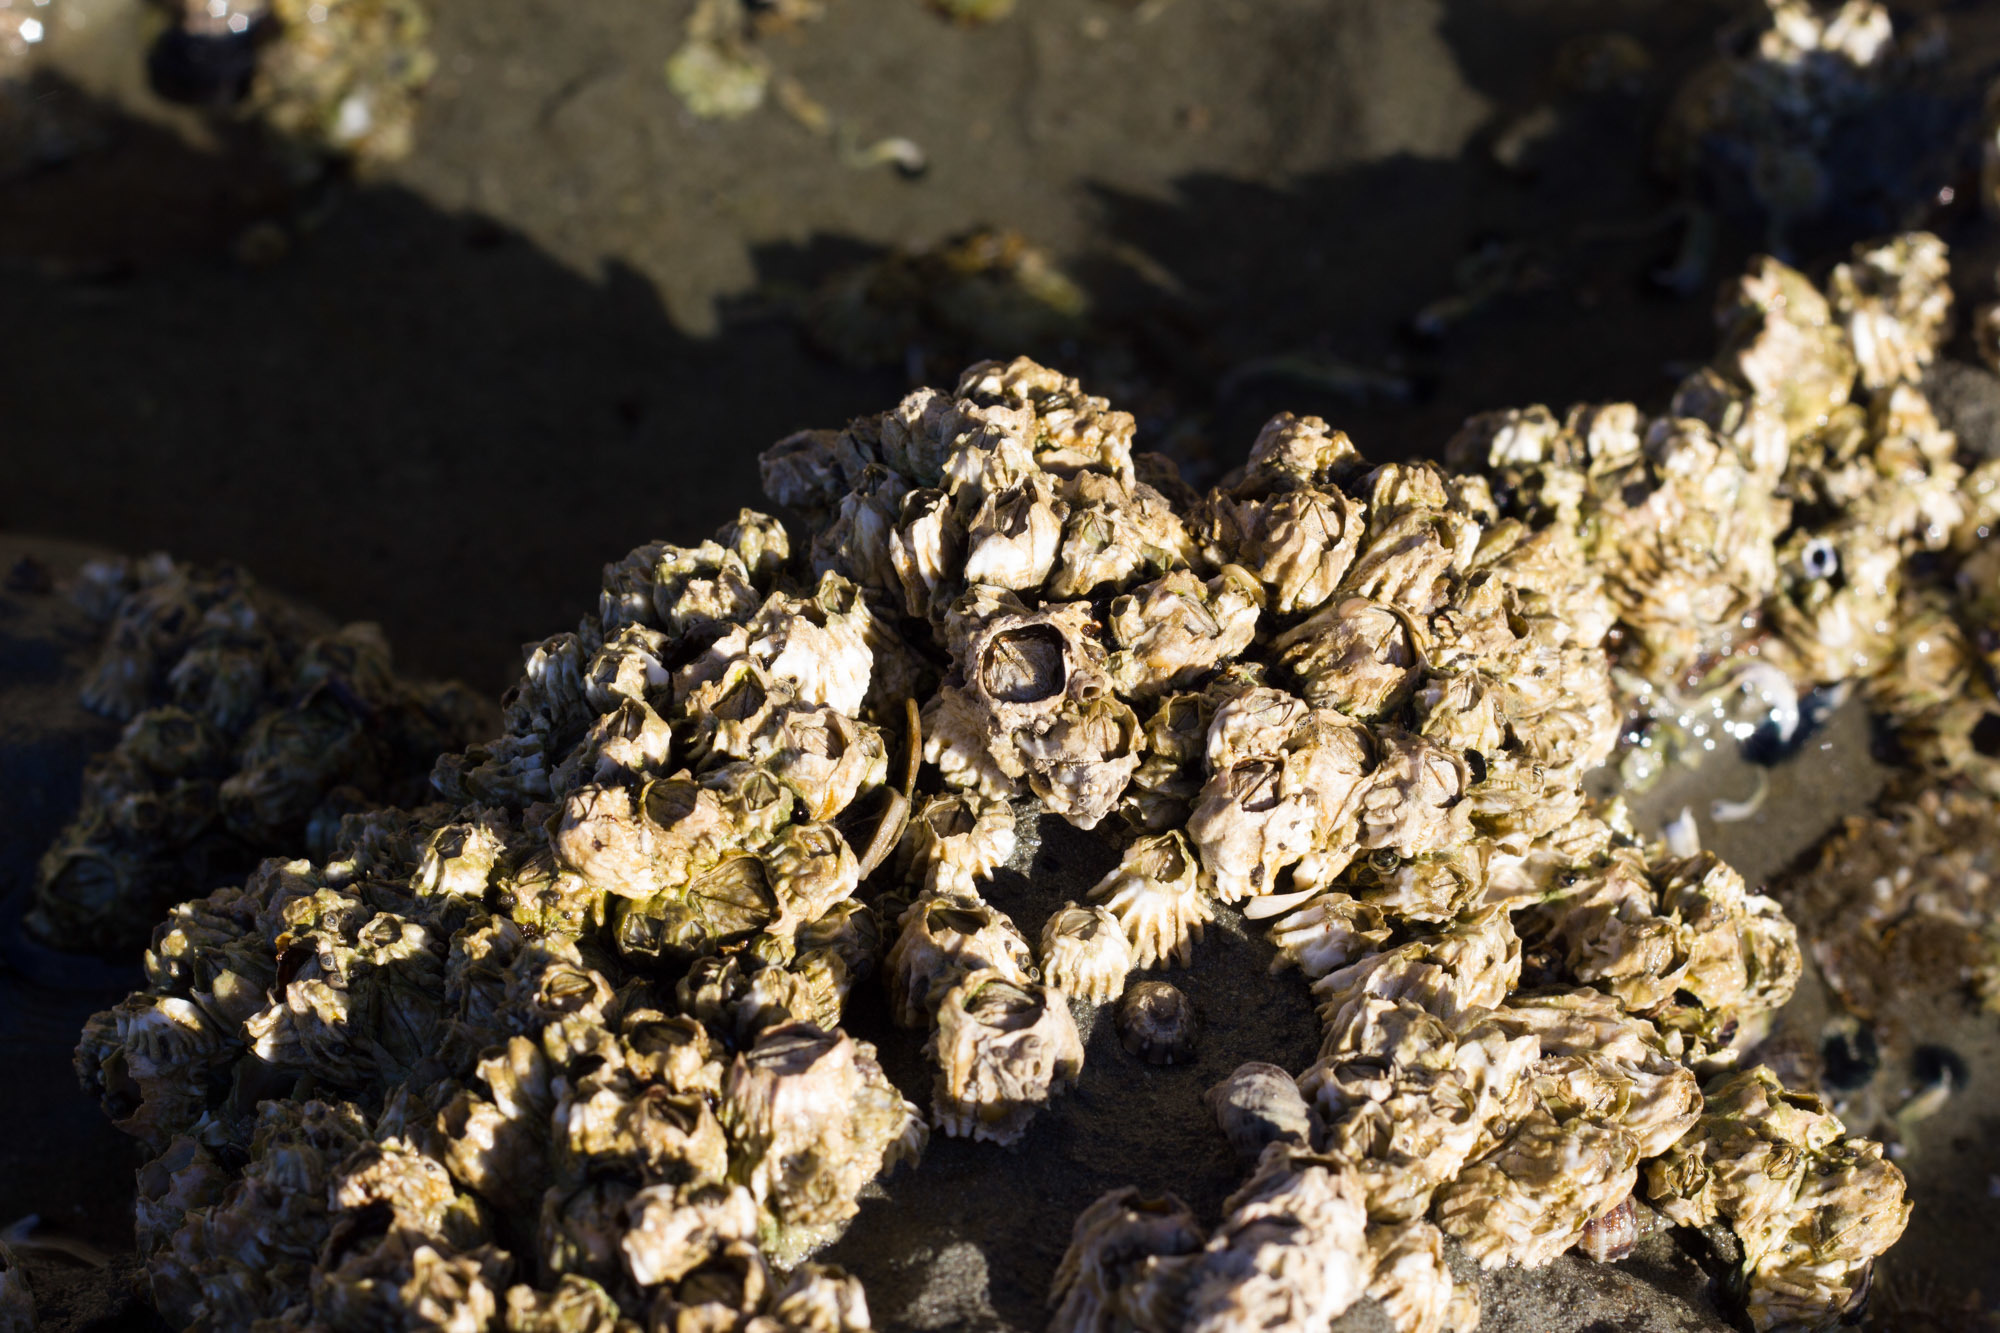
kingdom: Animalia
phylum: Arthropoda
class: Maxillopoda
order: Sessilia
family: Tetraclitidae
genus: Epopella
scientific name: Epopella plicata
